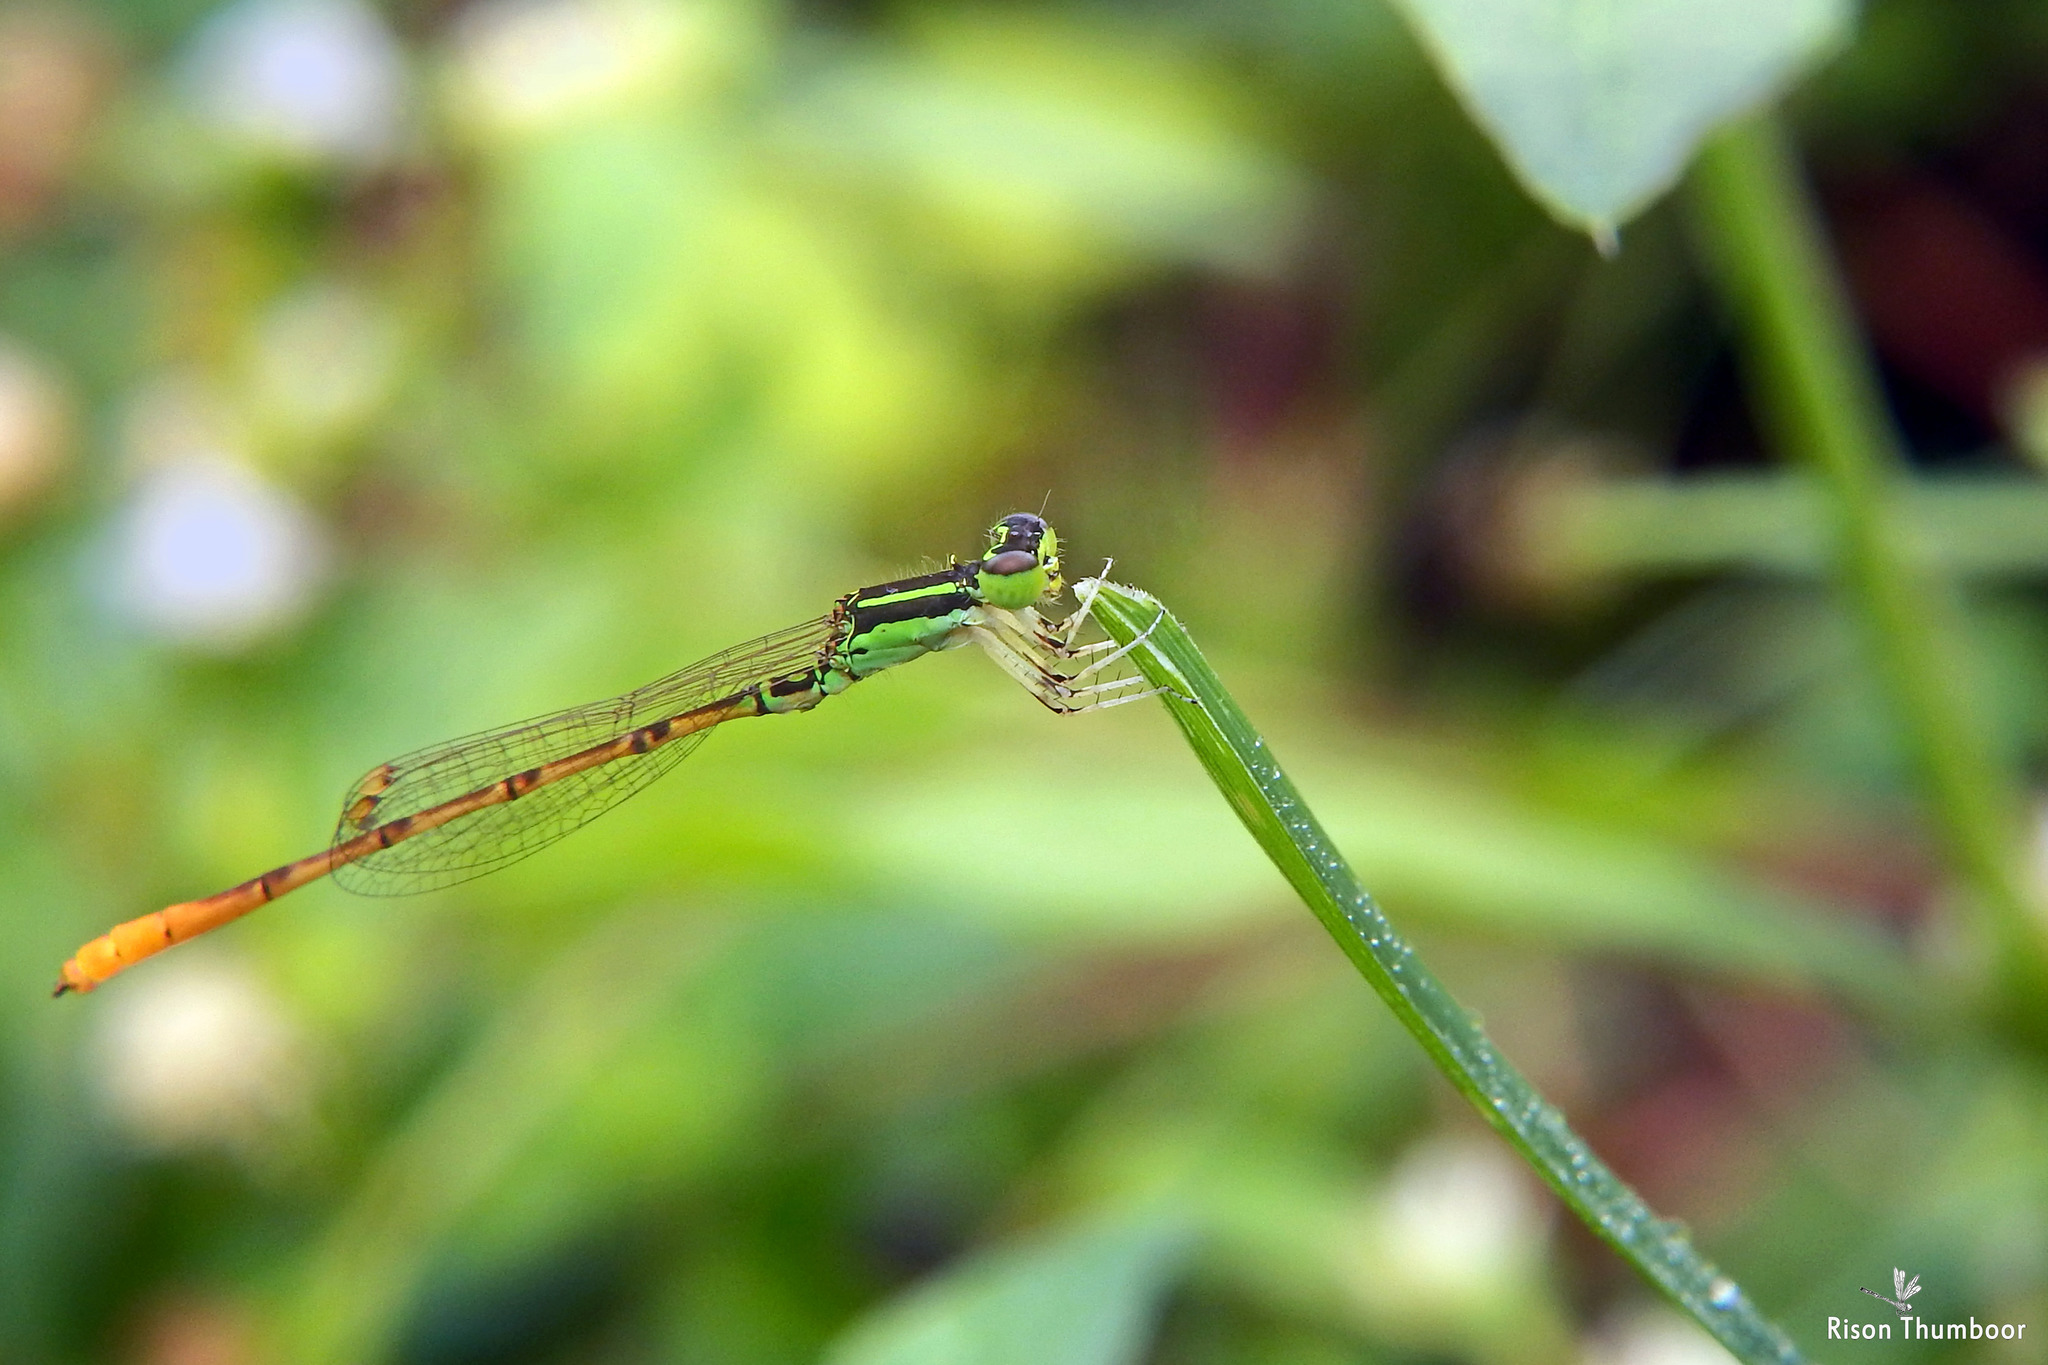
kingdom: Animalia
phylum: Arthropoda
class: Insecta
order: Odonata
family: Coenagrionidae
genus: Agriocnemis
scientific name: Agriocnemis keralensis
